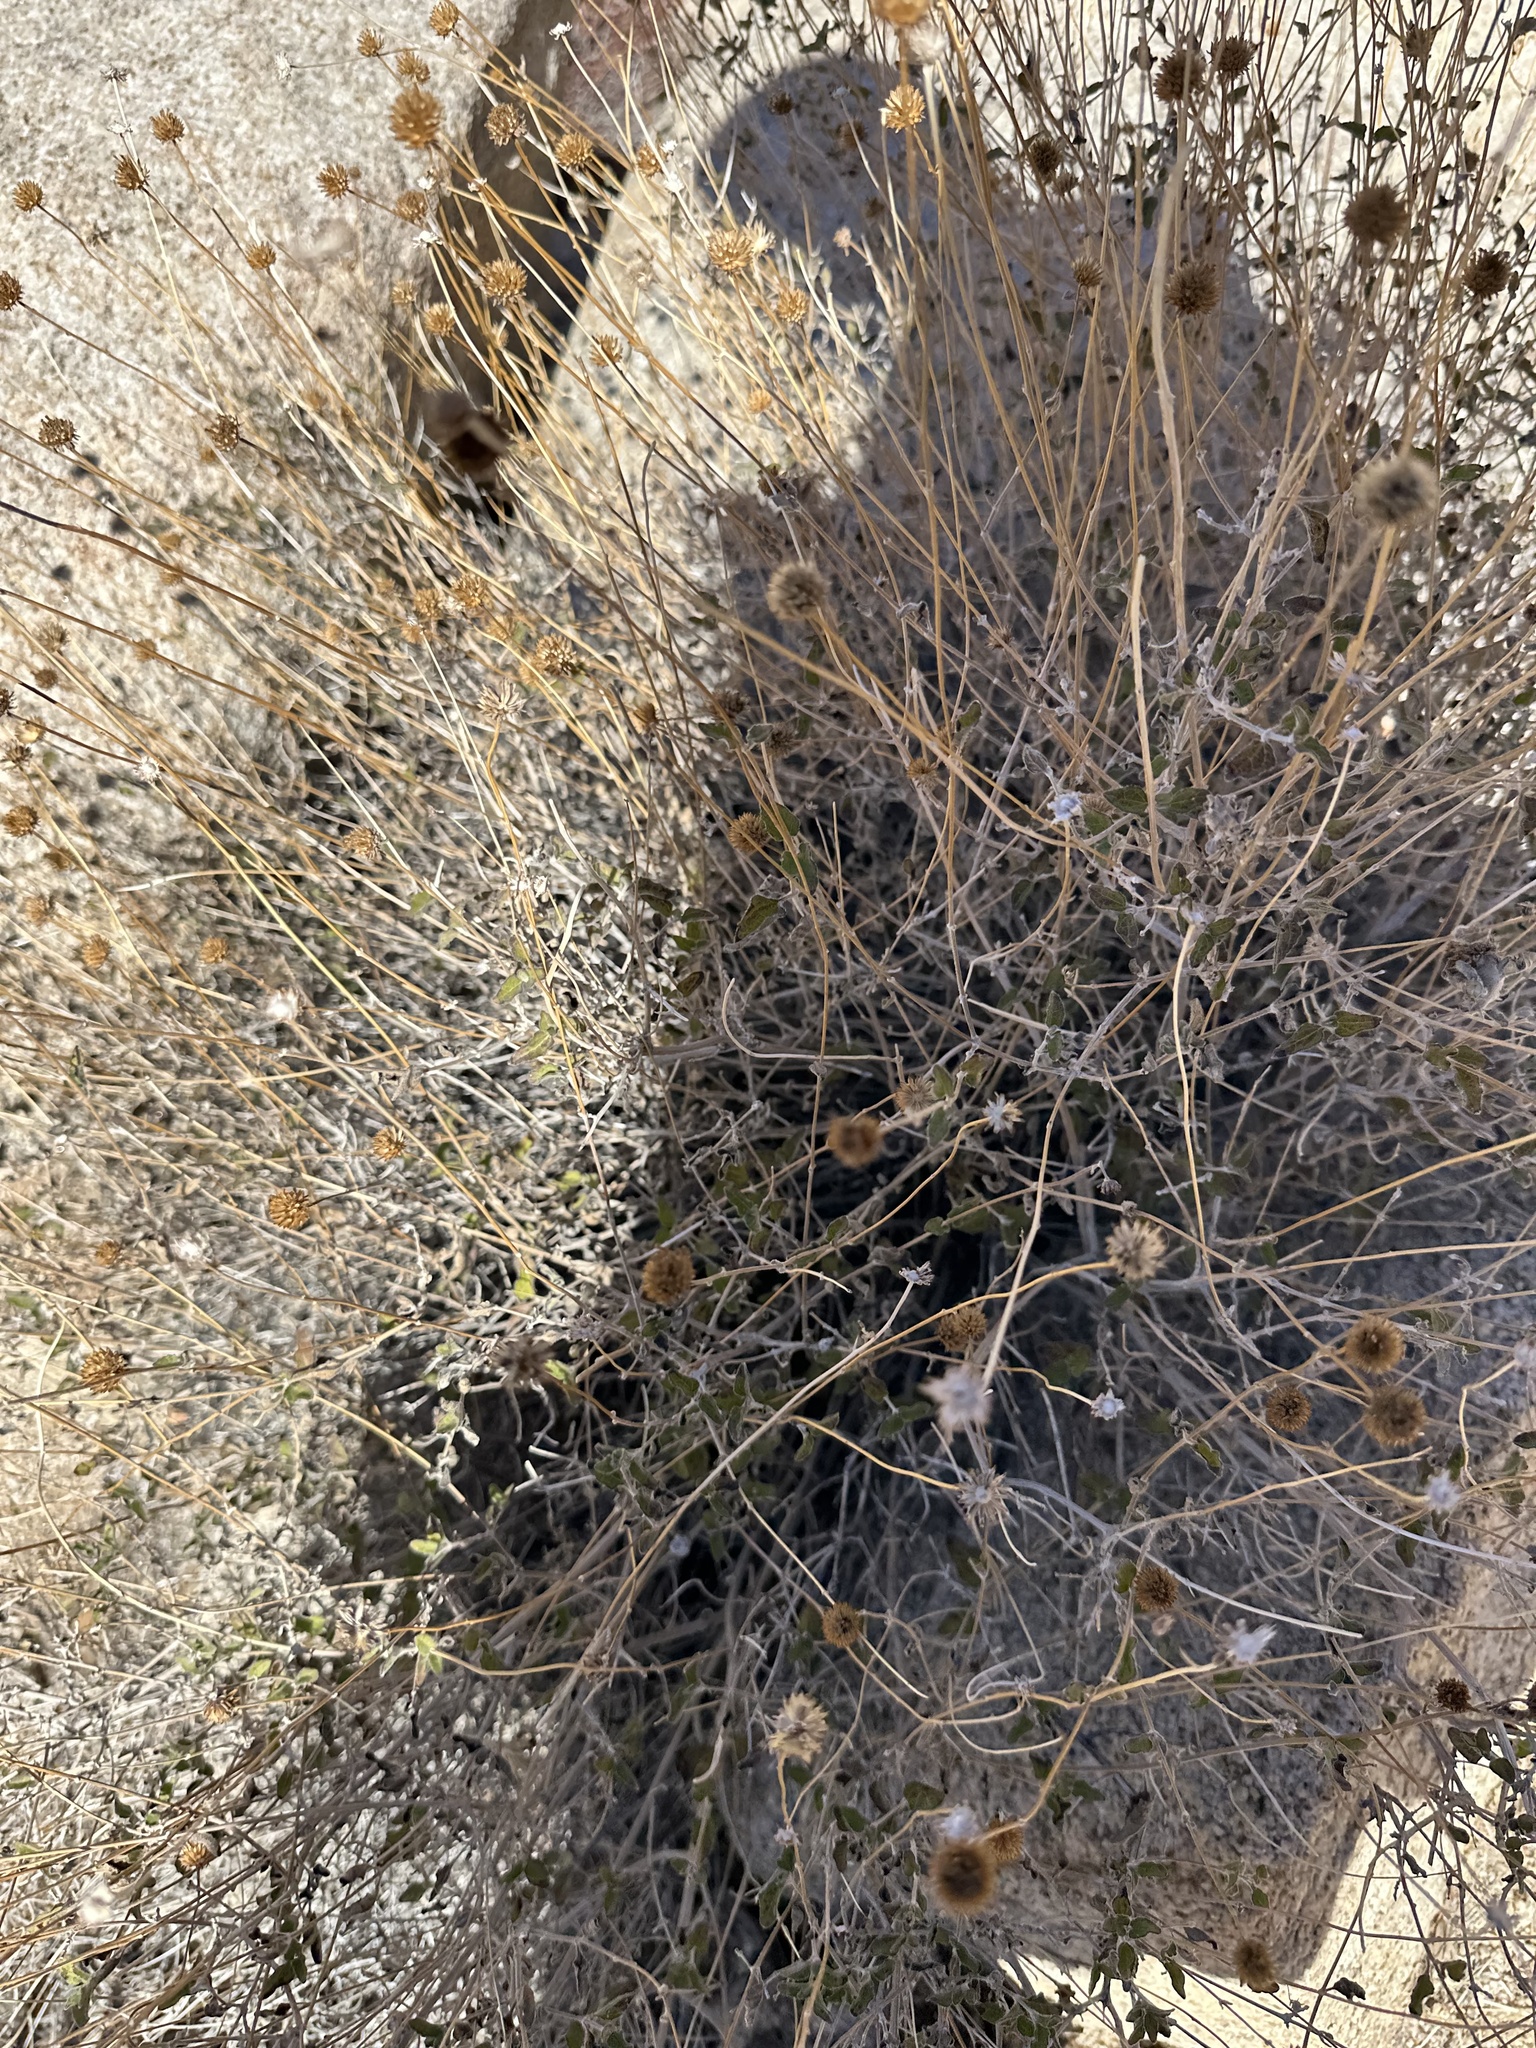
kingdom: Plantae
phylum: Tracheophyta
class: Magnoliopsida
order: Asterales
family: Asteraceae
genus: Bahiopsis
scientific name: Bahiopsis parishii
